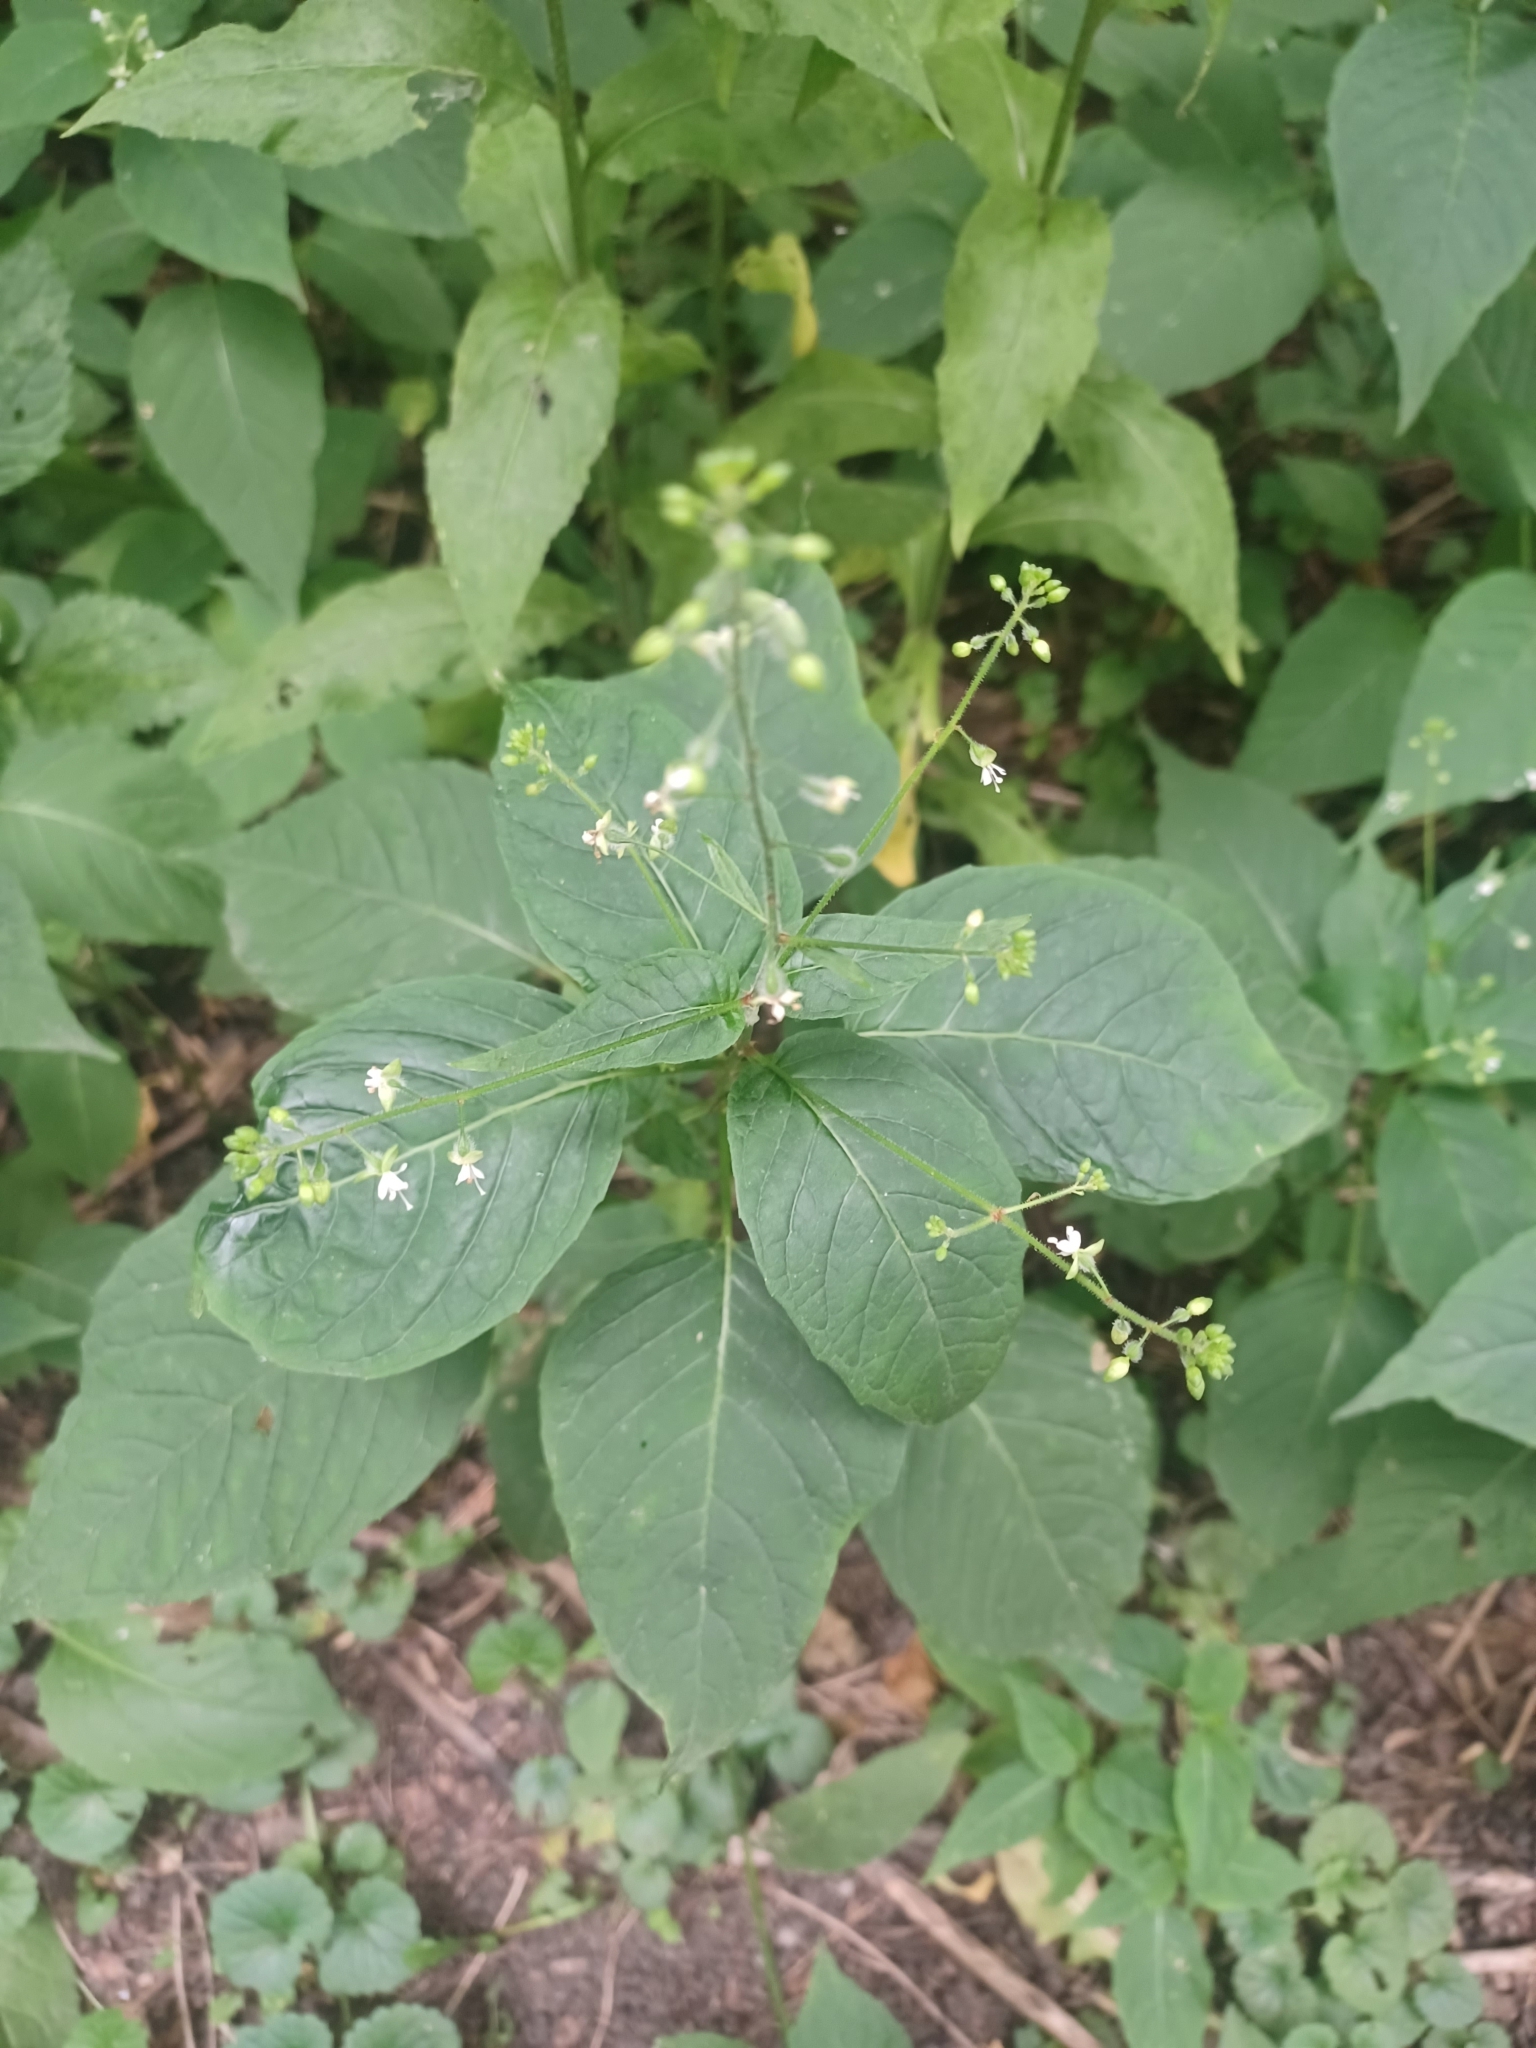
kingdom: Plantae
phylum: Tracheophyta
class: Magnoliopsida
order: Myrtales
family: Onagraceae
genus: Circaea
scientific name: Circaea canadensis
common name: Broad-leaved enchanter's nightshade
